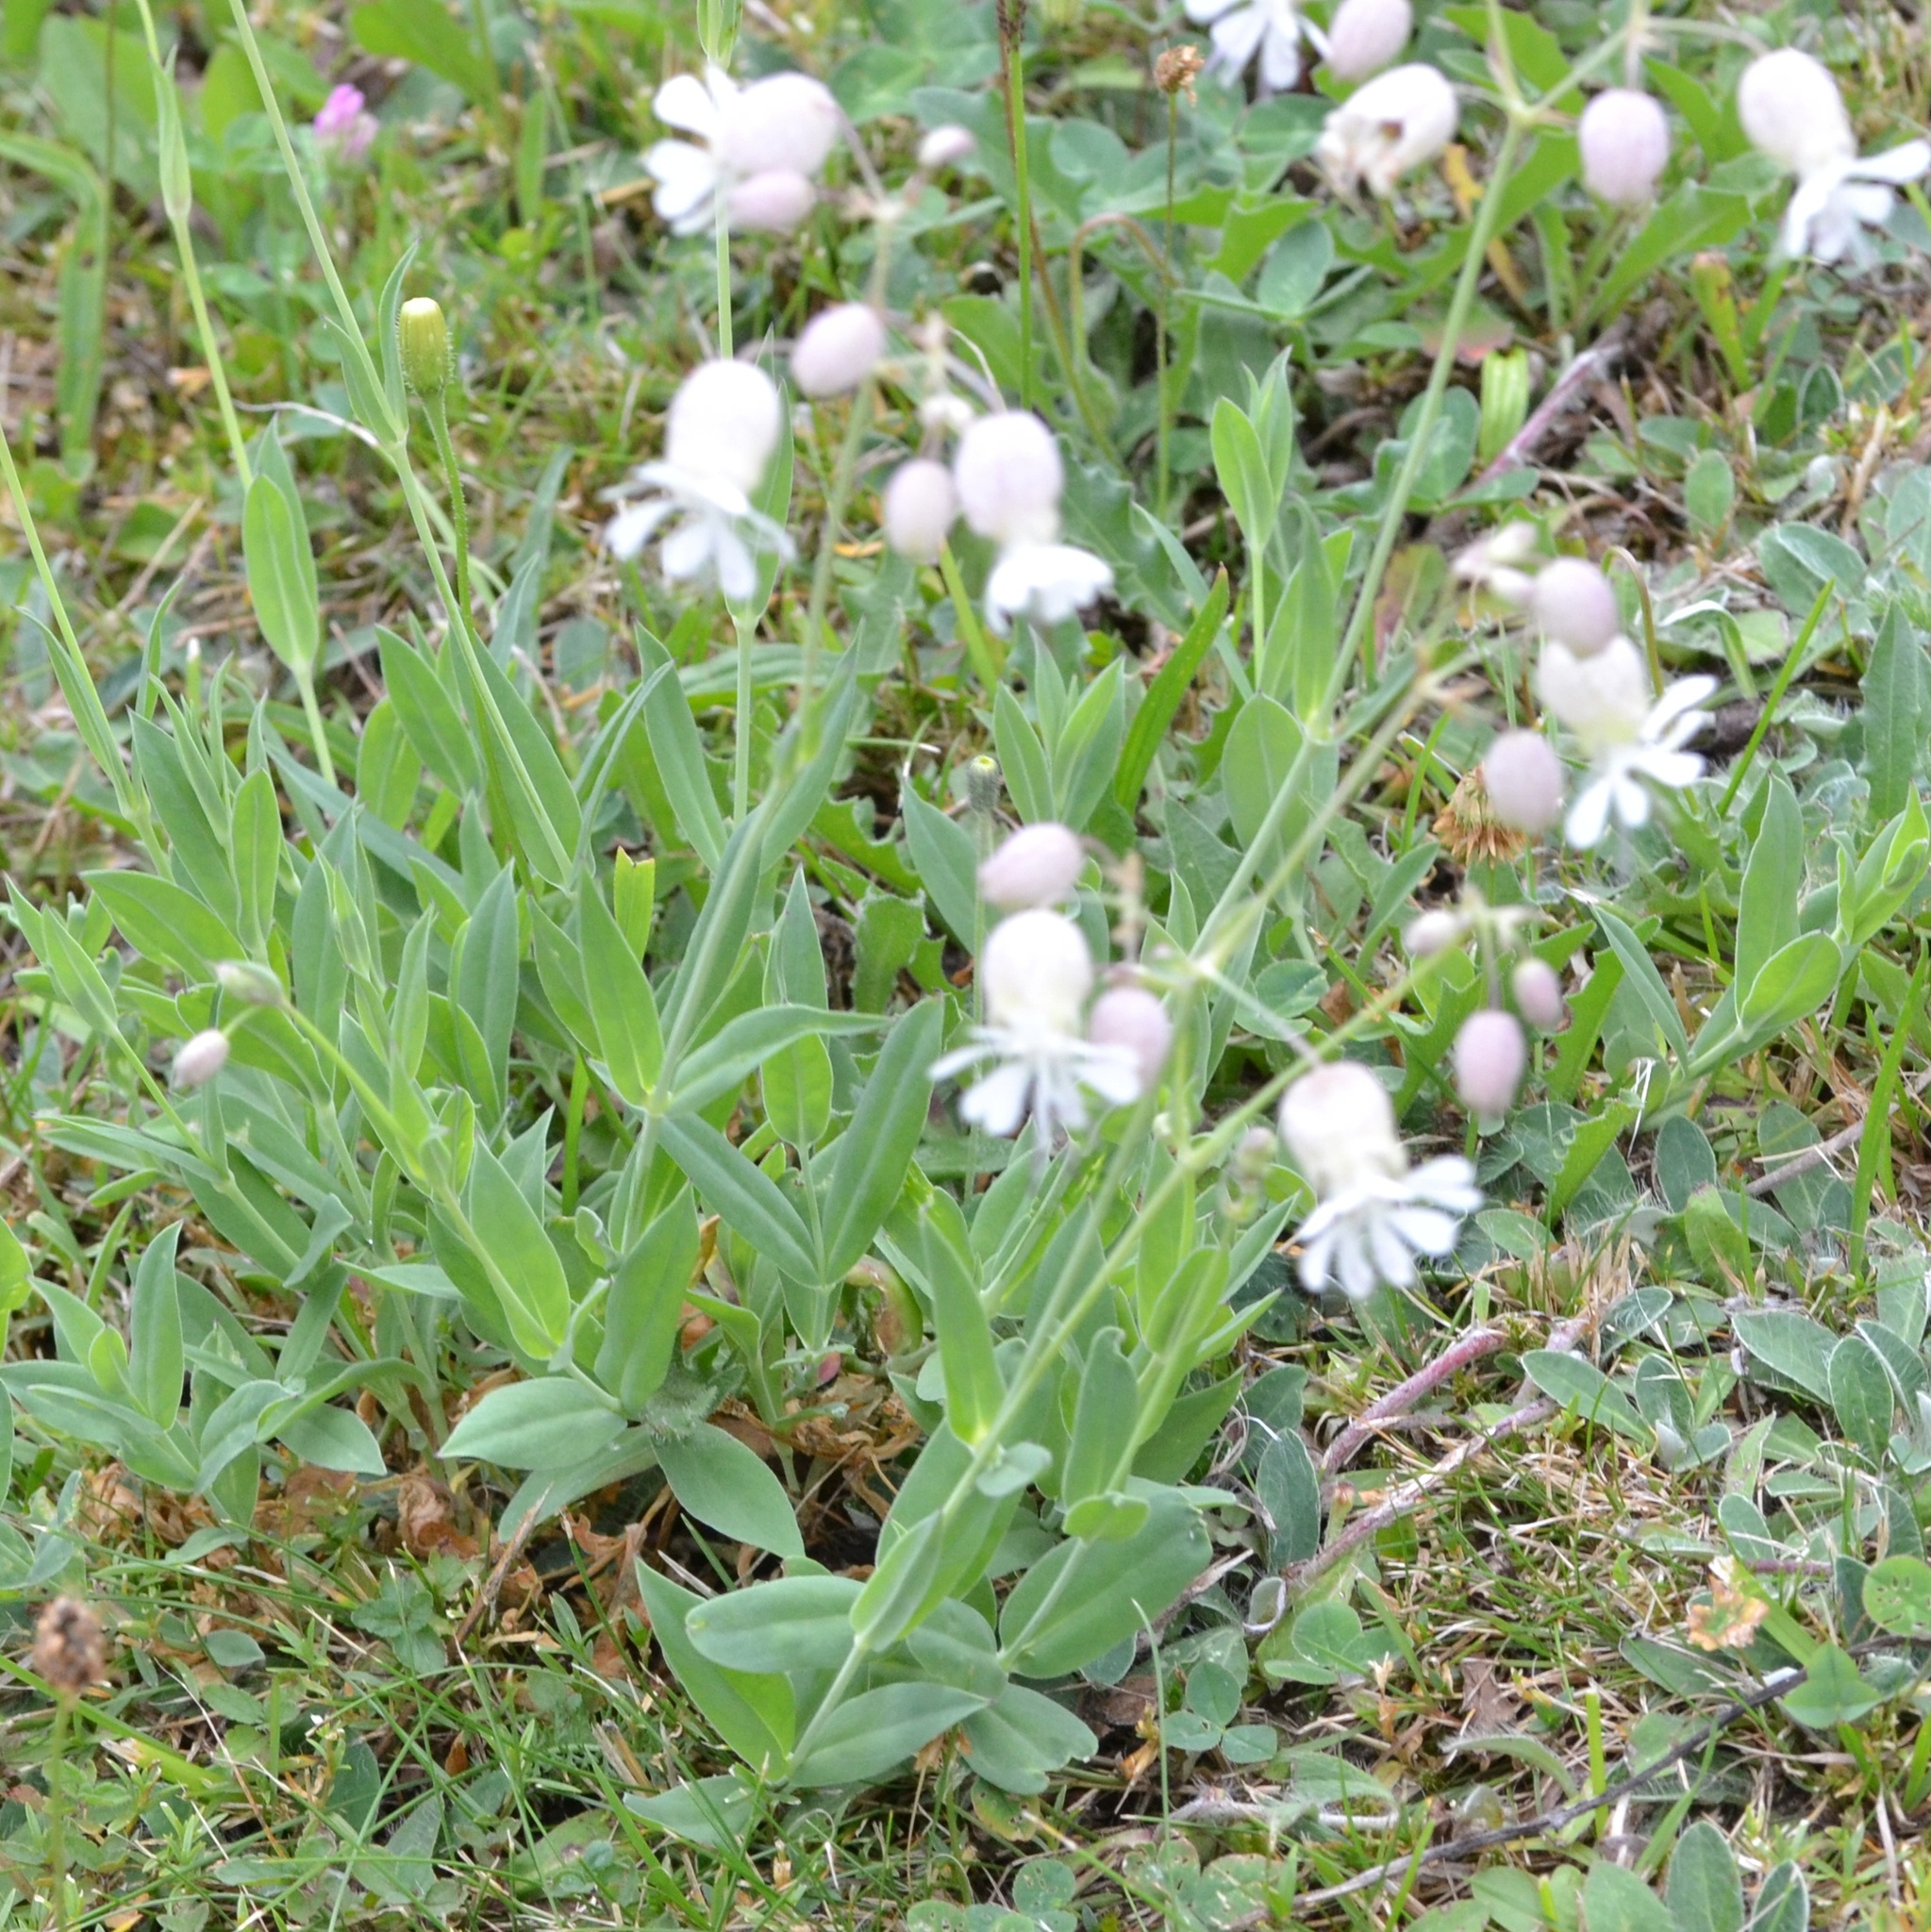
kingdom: Plantae
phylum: Tracheophyta
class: Magnoliopsida
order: Caryophyllales
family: Caryophyllaceae
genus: Silene
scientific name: Silene vulgaris
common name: Bladder campion
